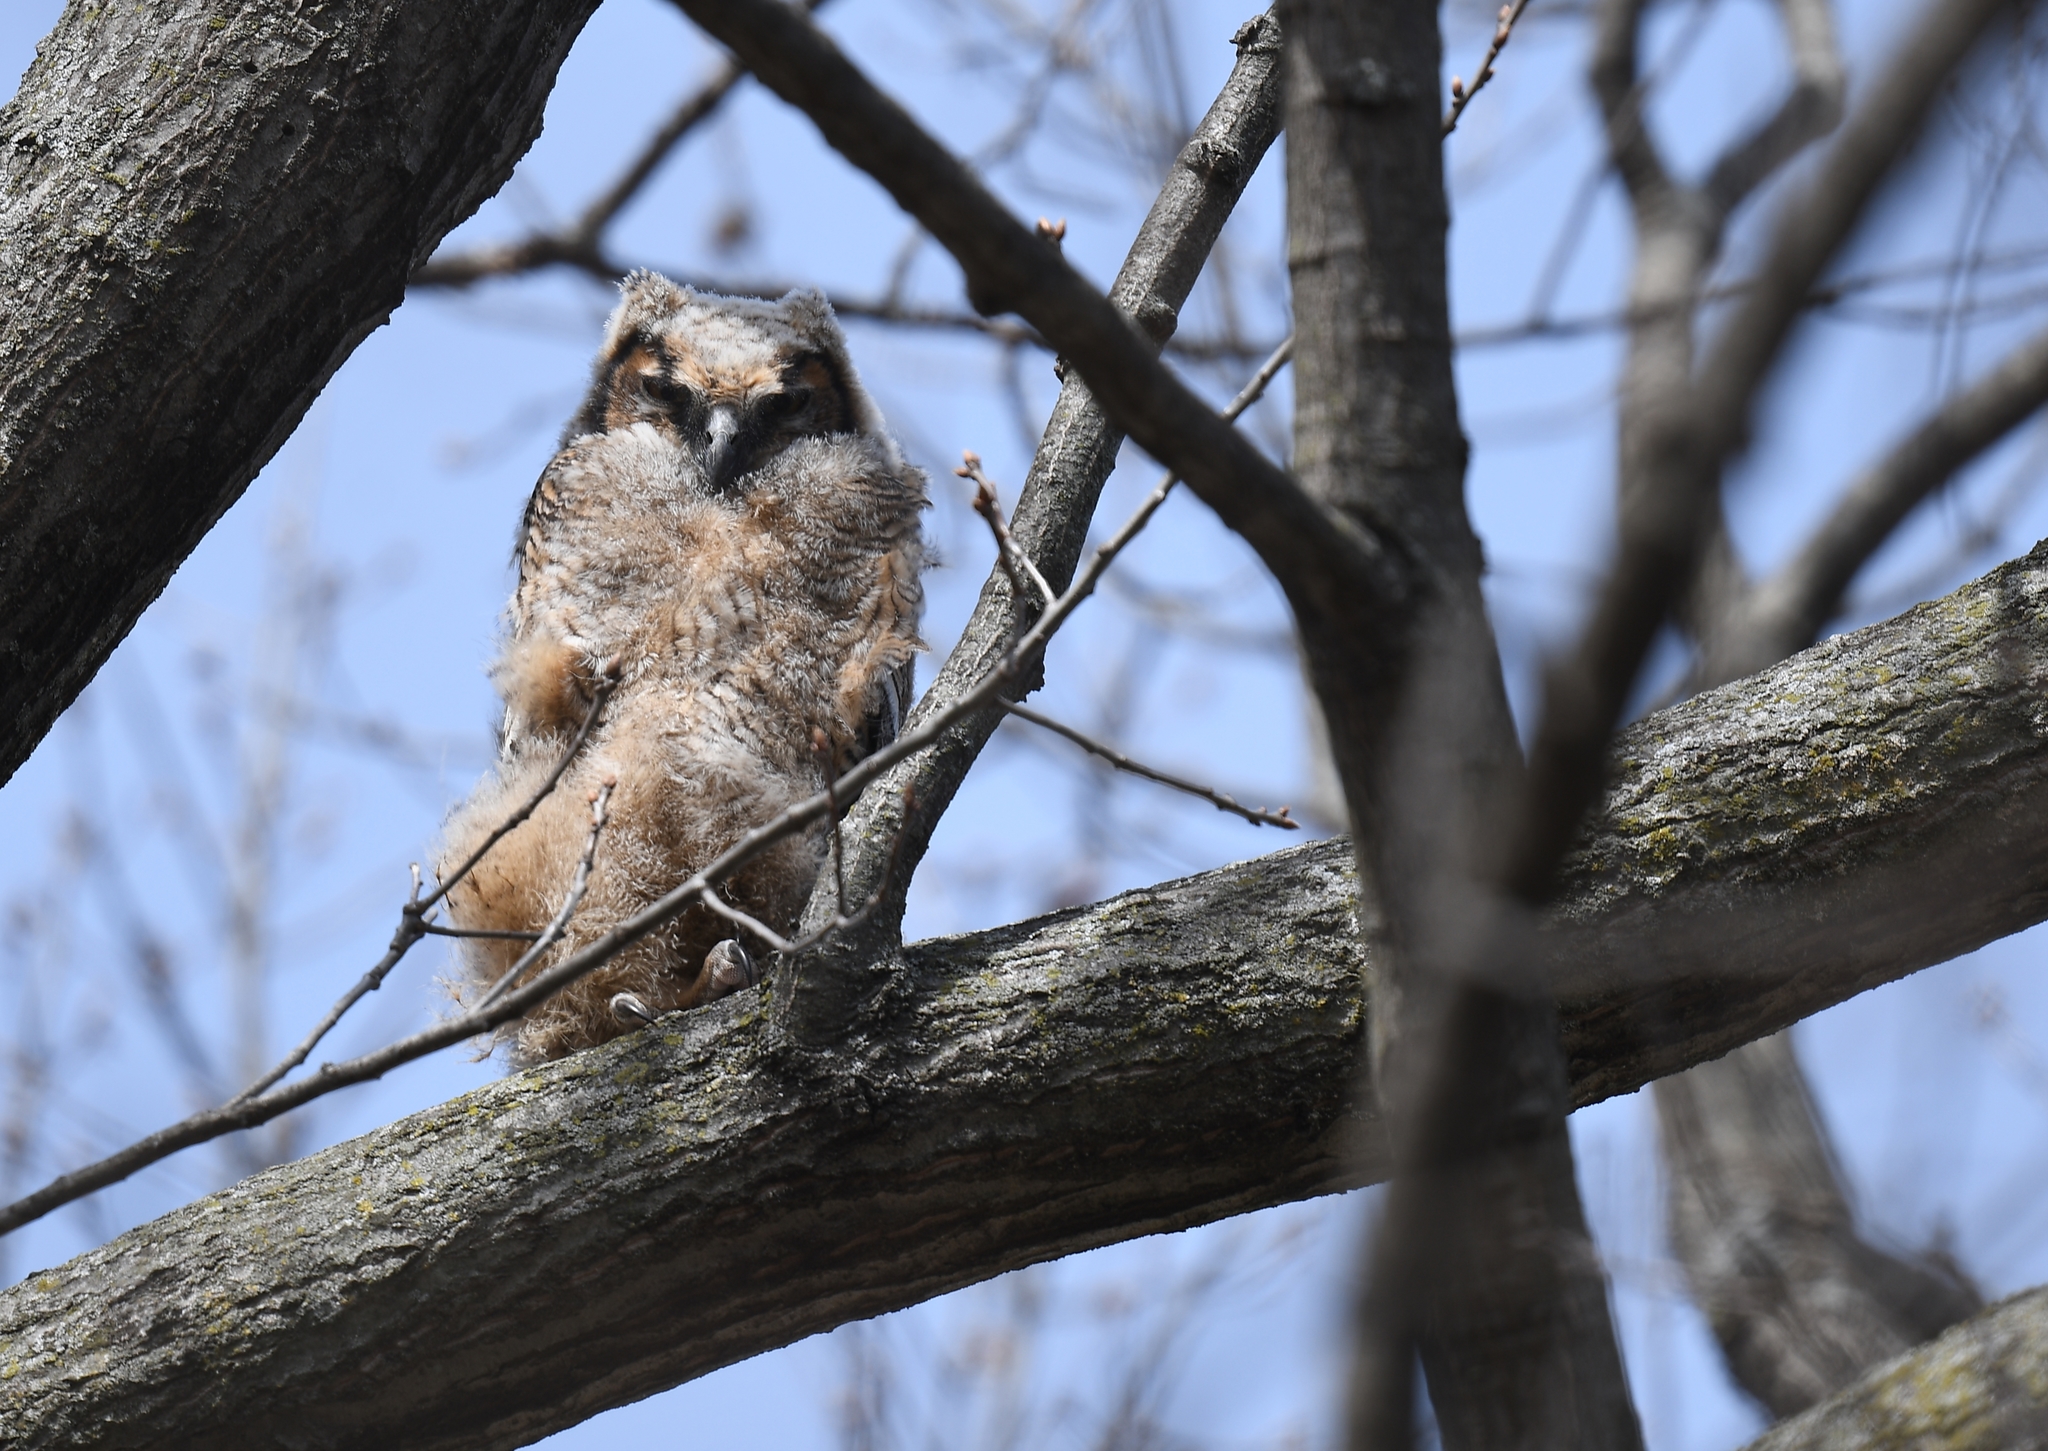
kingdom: Animalia
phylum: Chordata
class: Aves
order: Strigiformes
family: Strigidae
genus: Bubo
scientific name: Bubo virginianus
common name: Great horned owl
